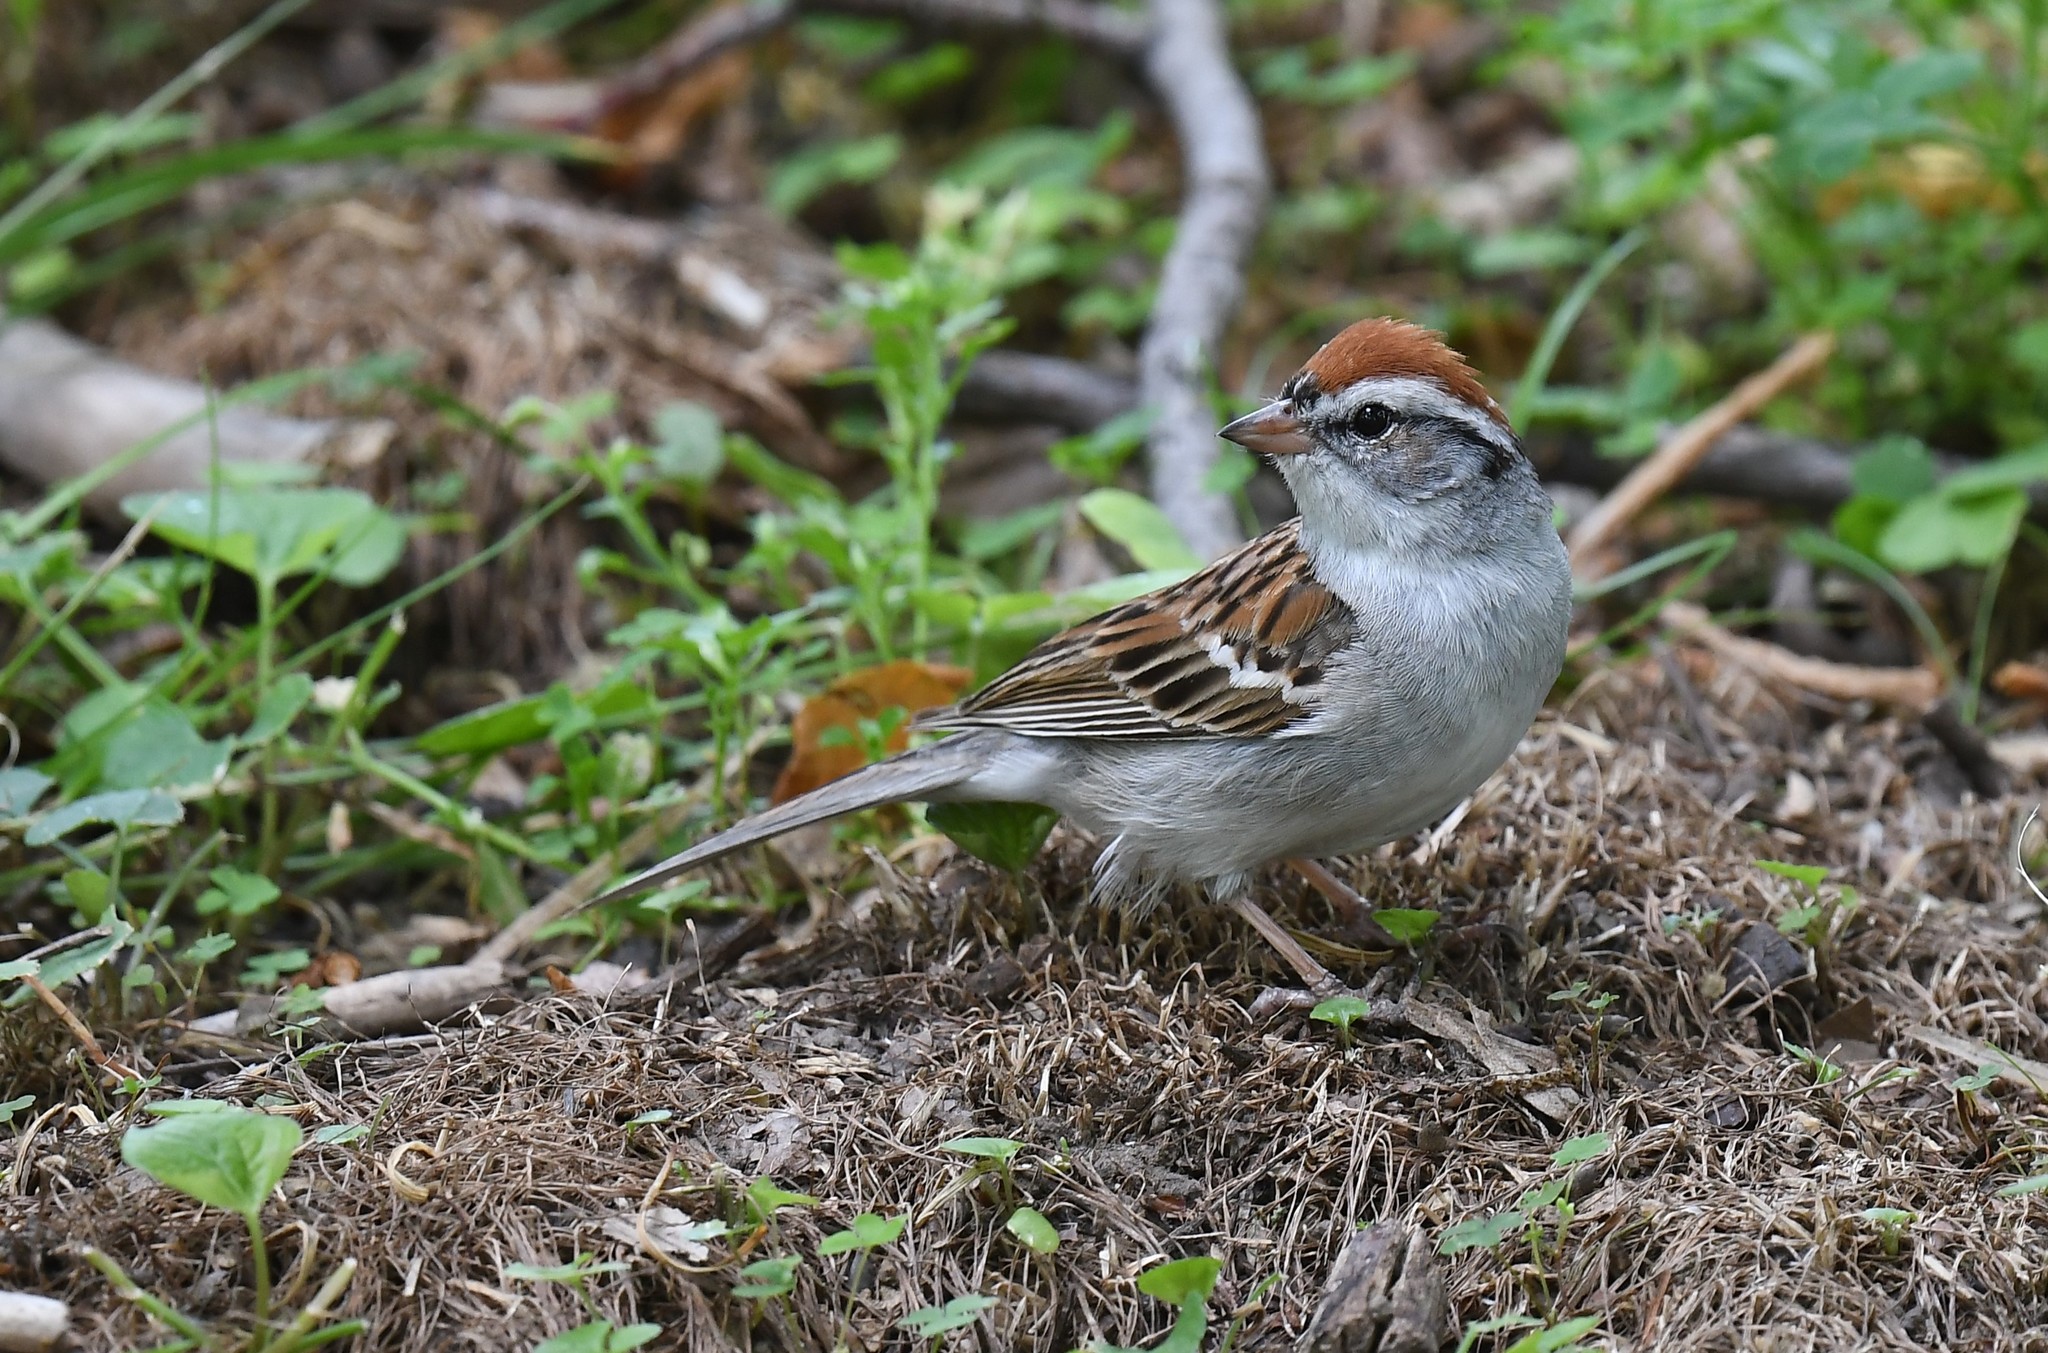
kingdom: Animalia
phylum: Chordata
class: Aves
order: Passeriformes
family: Passerellidae
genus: Spizella
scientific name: Spizella passerina
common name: Chipping sparrow
